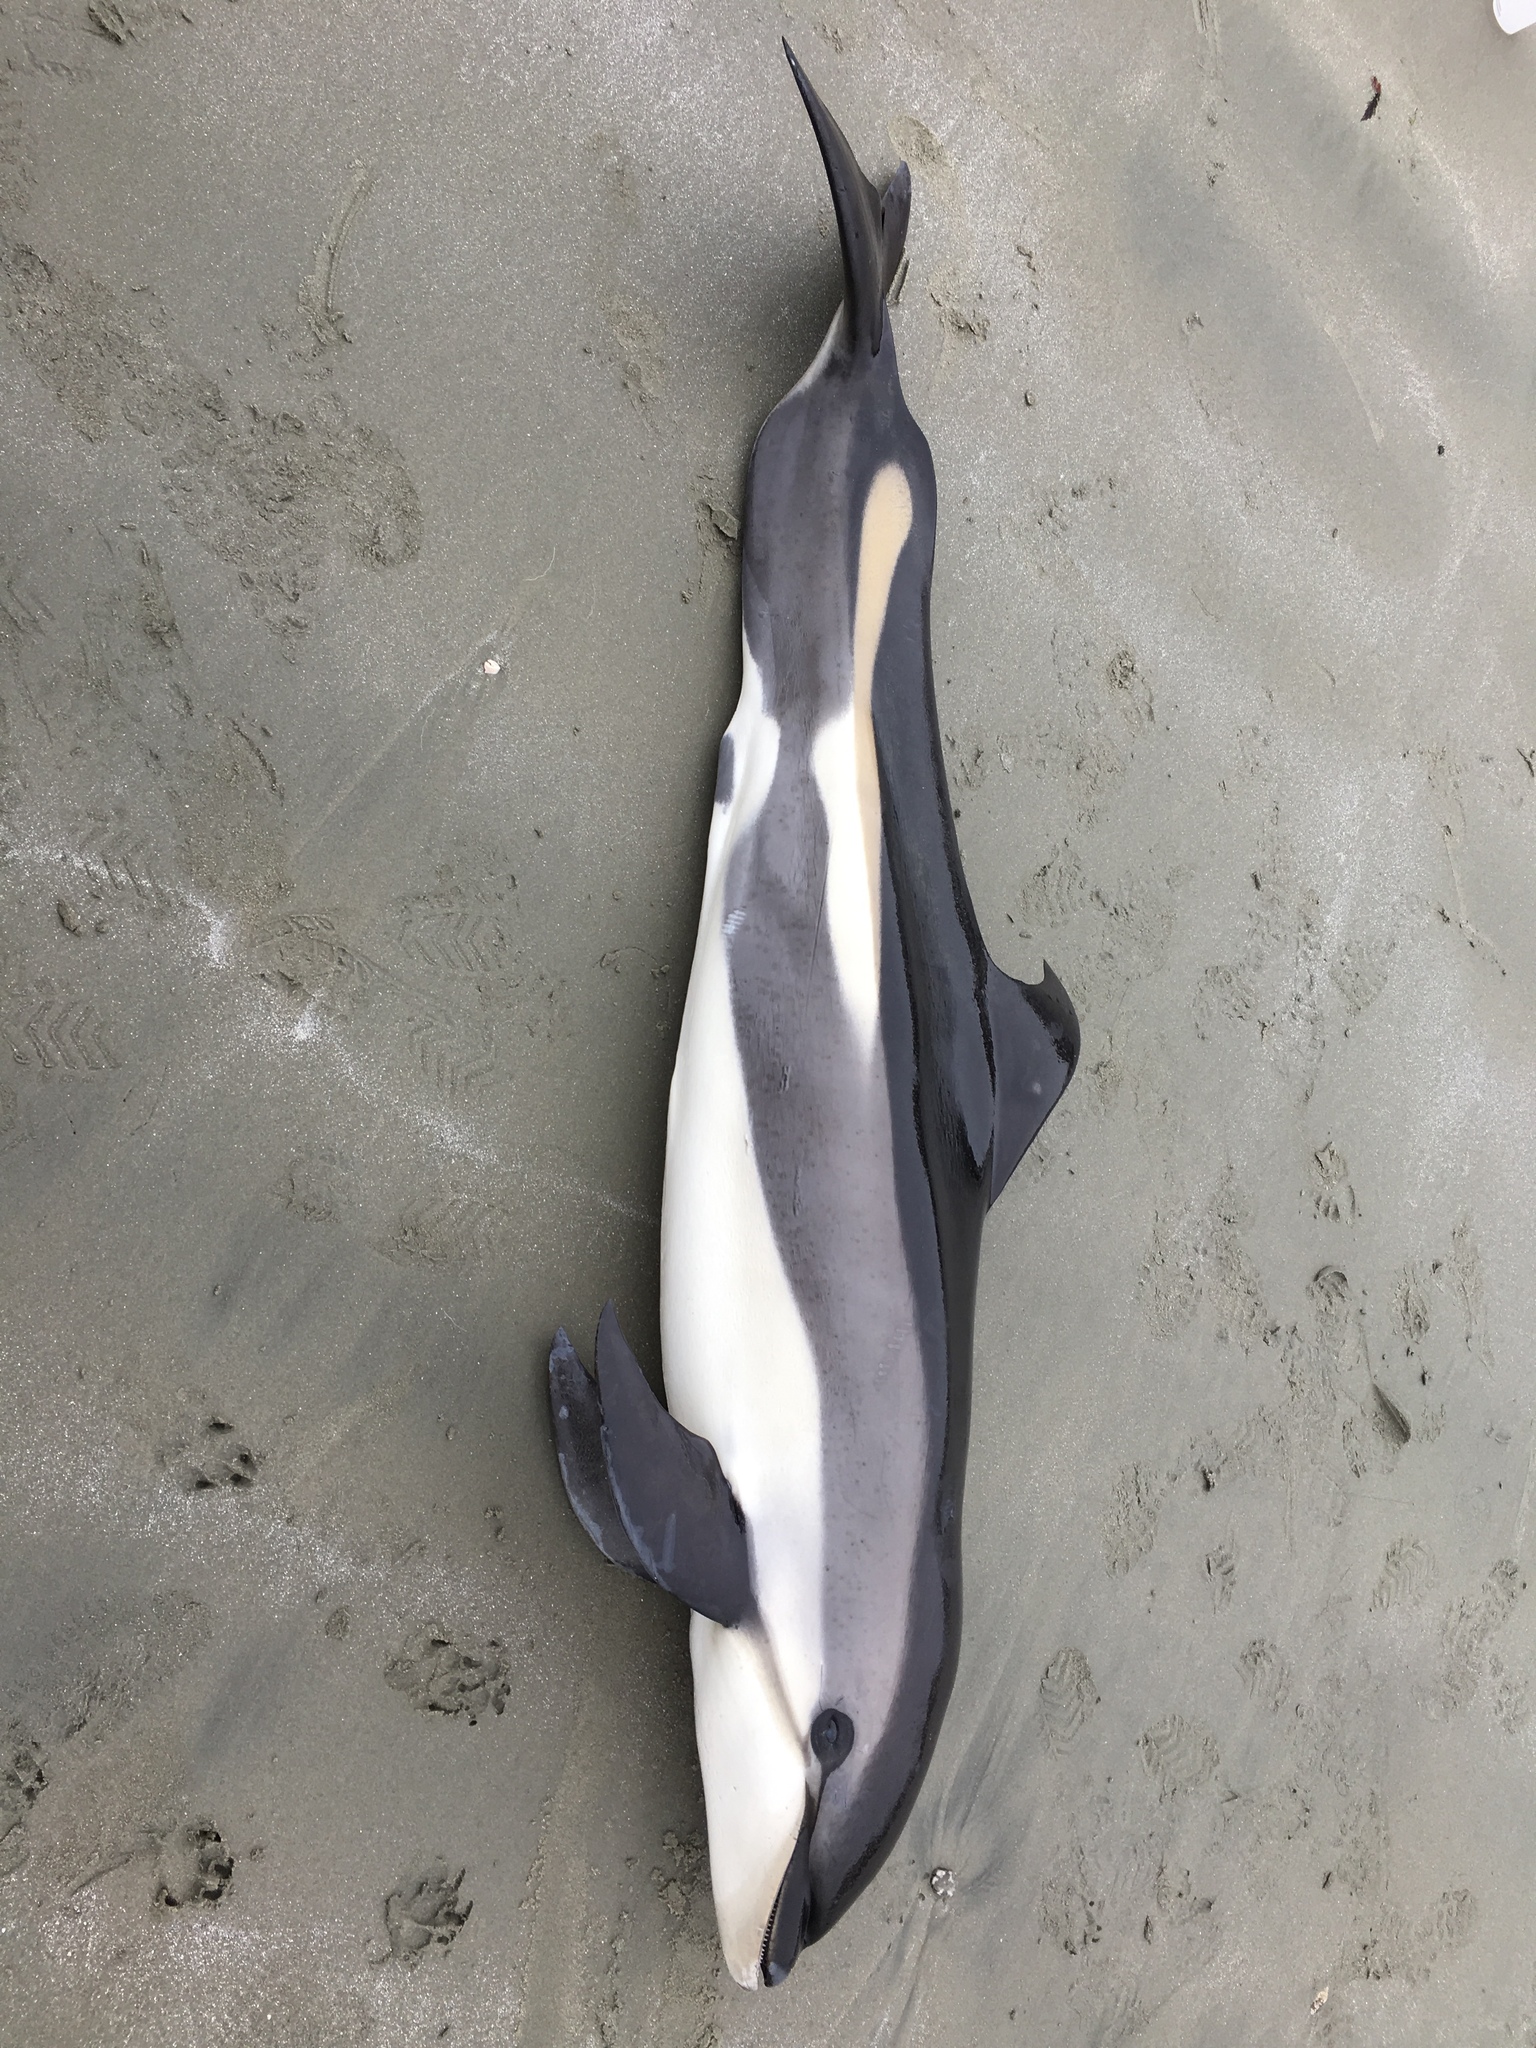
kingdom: Animalia
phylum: Chordata
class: Mammalia
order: Cetacea
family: Delphinidae
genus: Lagenorhynchus
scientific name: Lagenorhynchus acutus
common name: Atlantic white-sided dolphin
